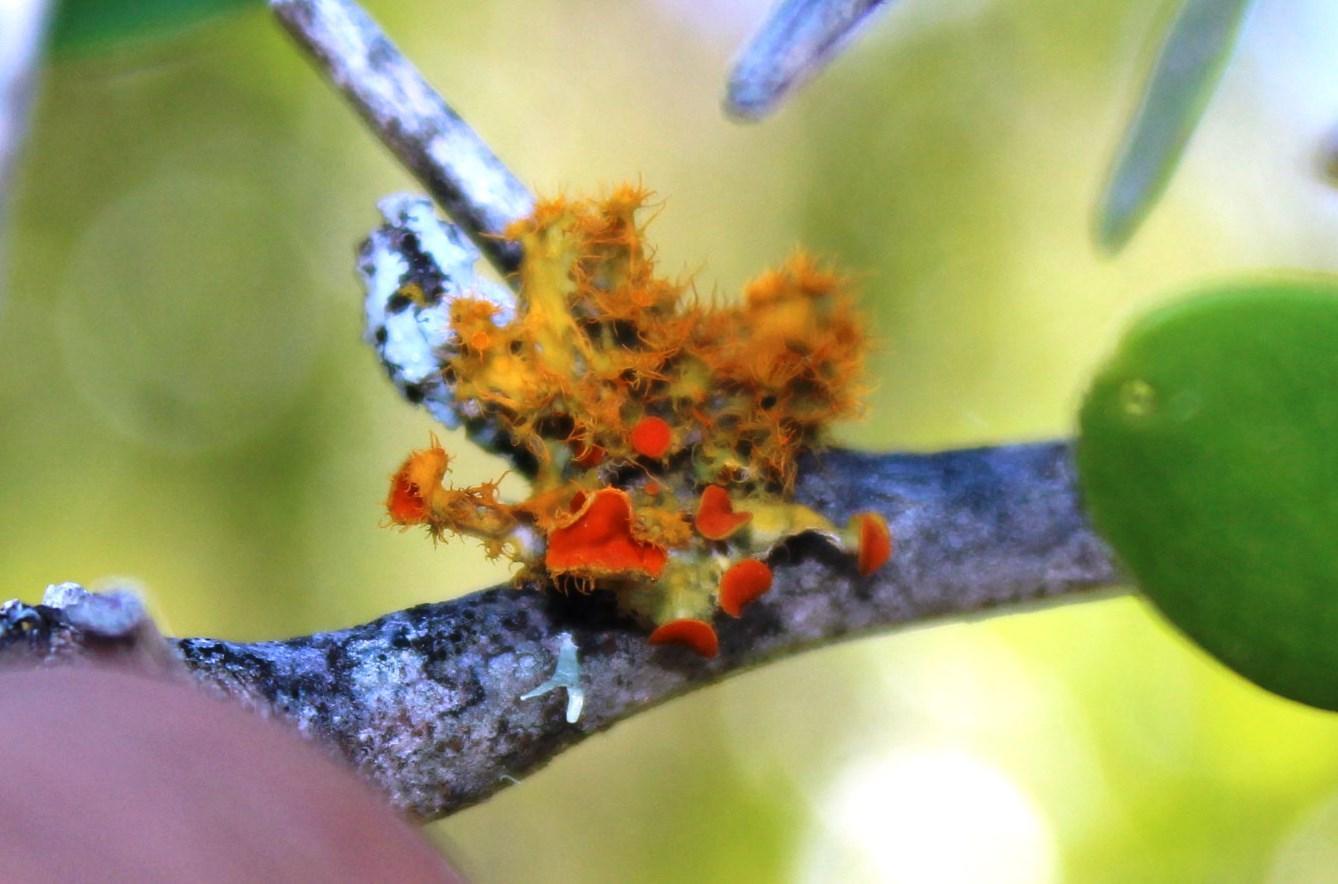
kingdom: Fungi
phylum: Ascomycota
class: Lecanoromycetes
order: Teloschistales
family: Teloschistaceae
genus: Niorma
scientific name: Niorma chrysophthalma
